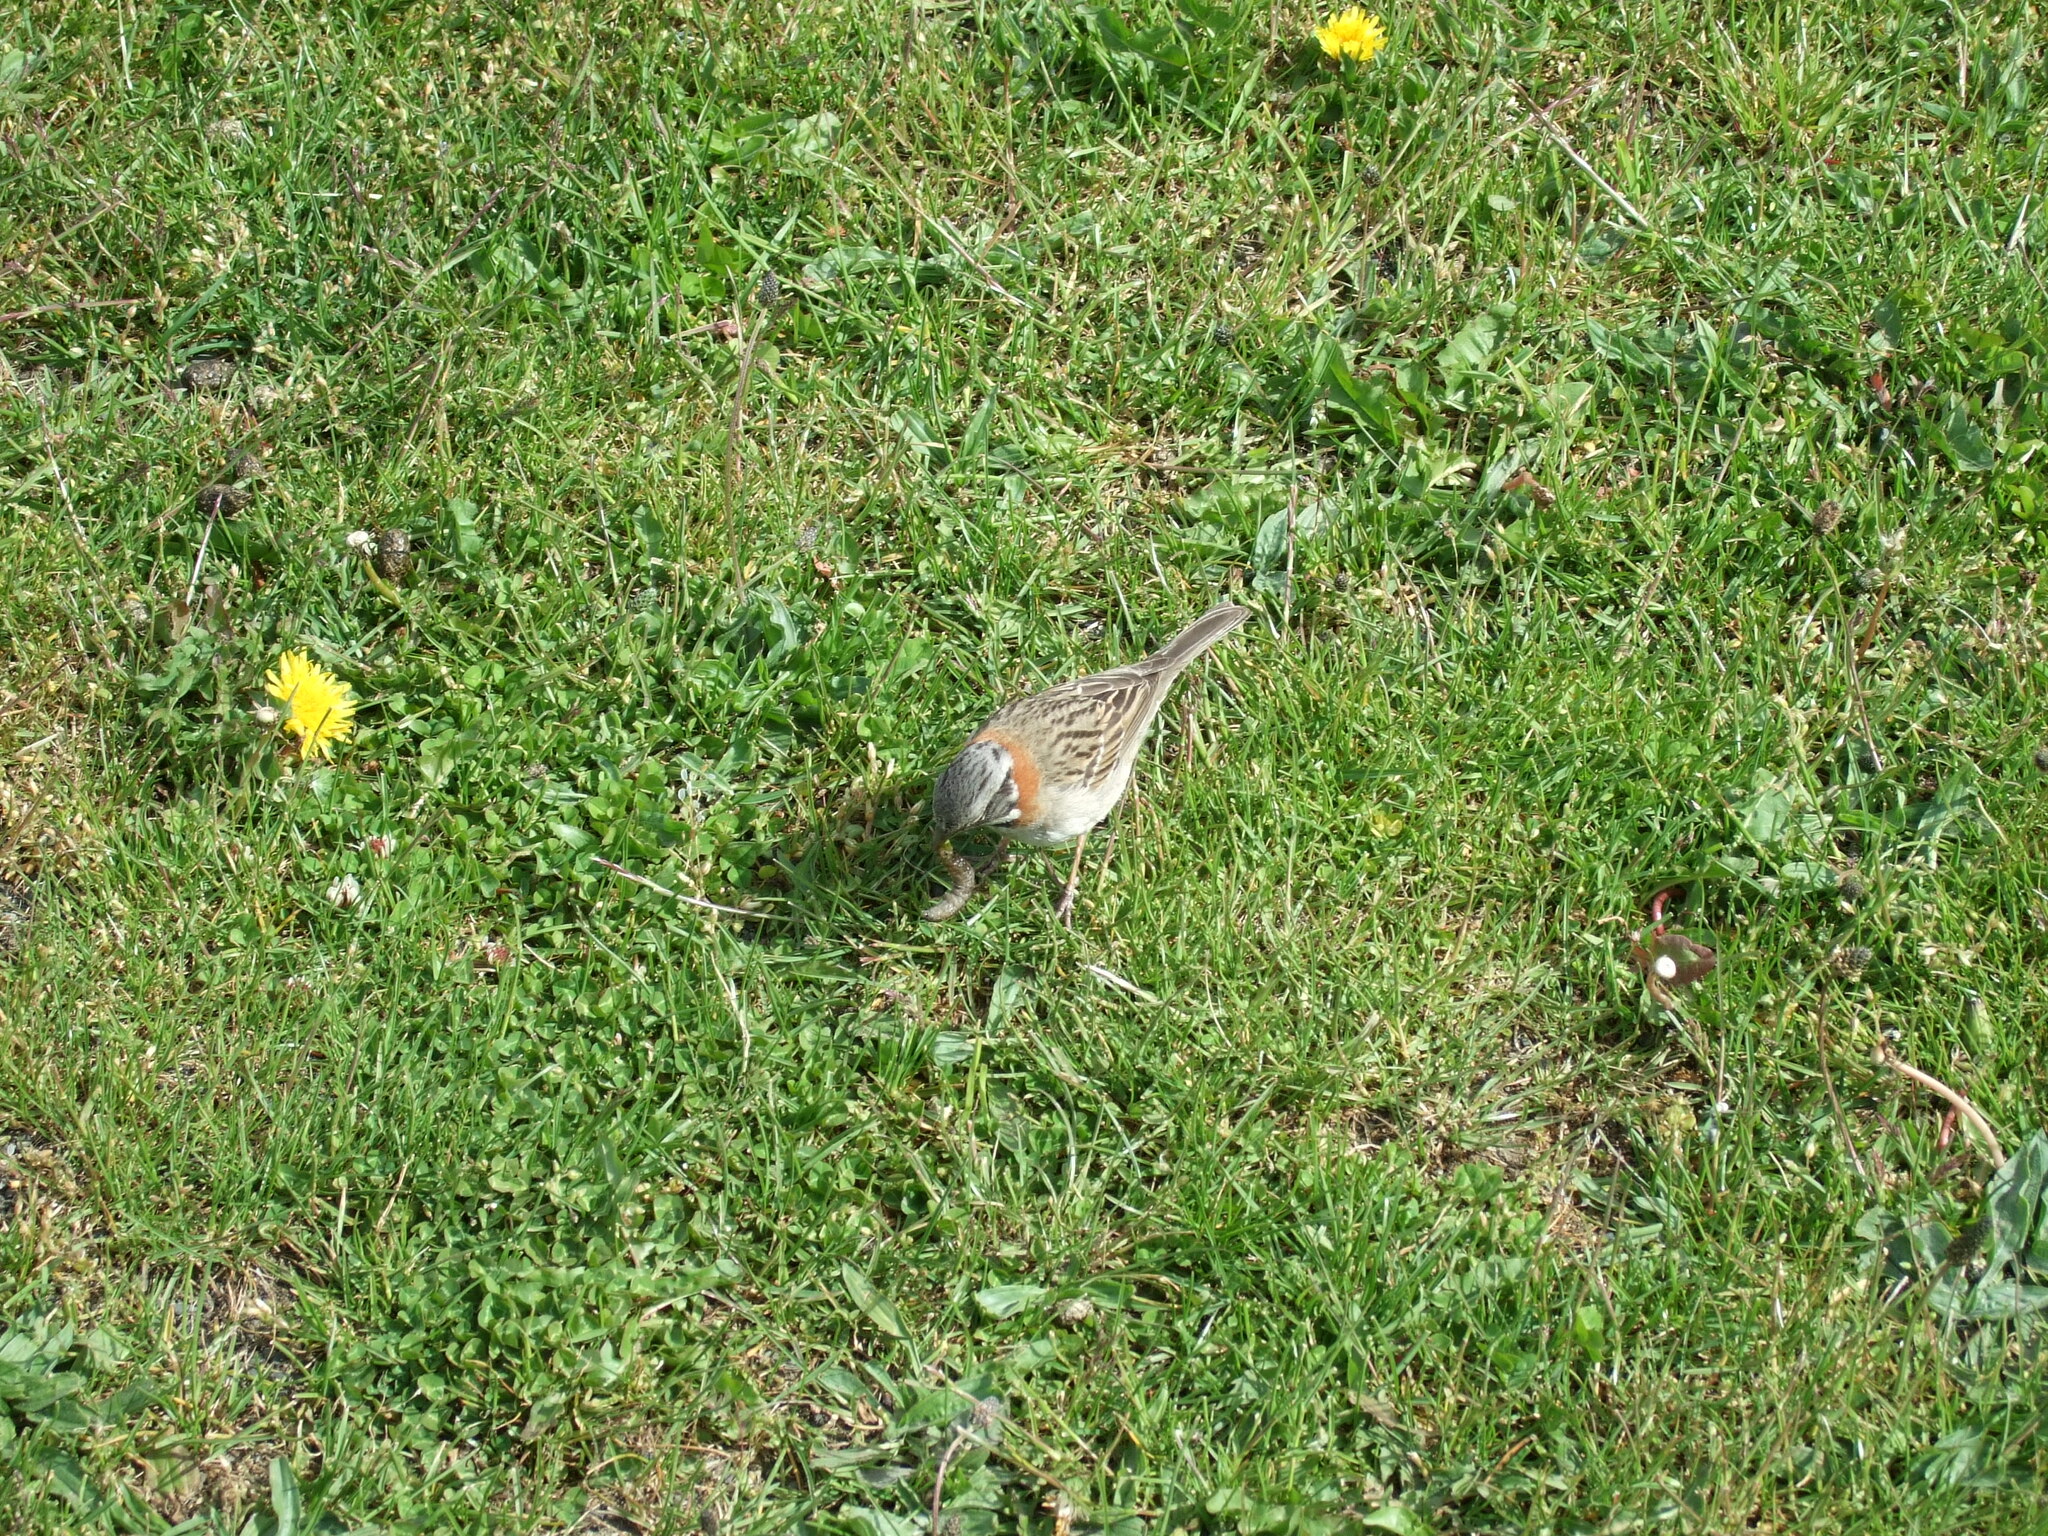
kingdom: Animalia
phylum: Chordata
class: Aves
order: Passeriformes
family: Passerellidae
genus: Zonotrichia
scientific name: Zonotrichia capensis
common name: Rufous-collared sparrow
